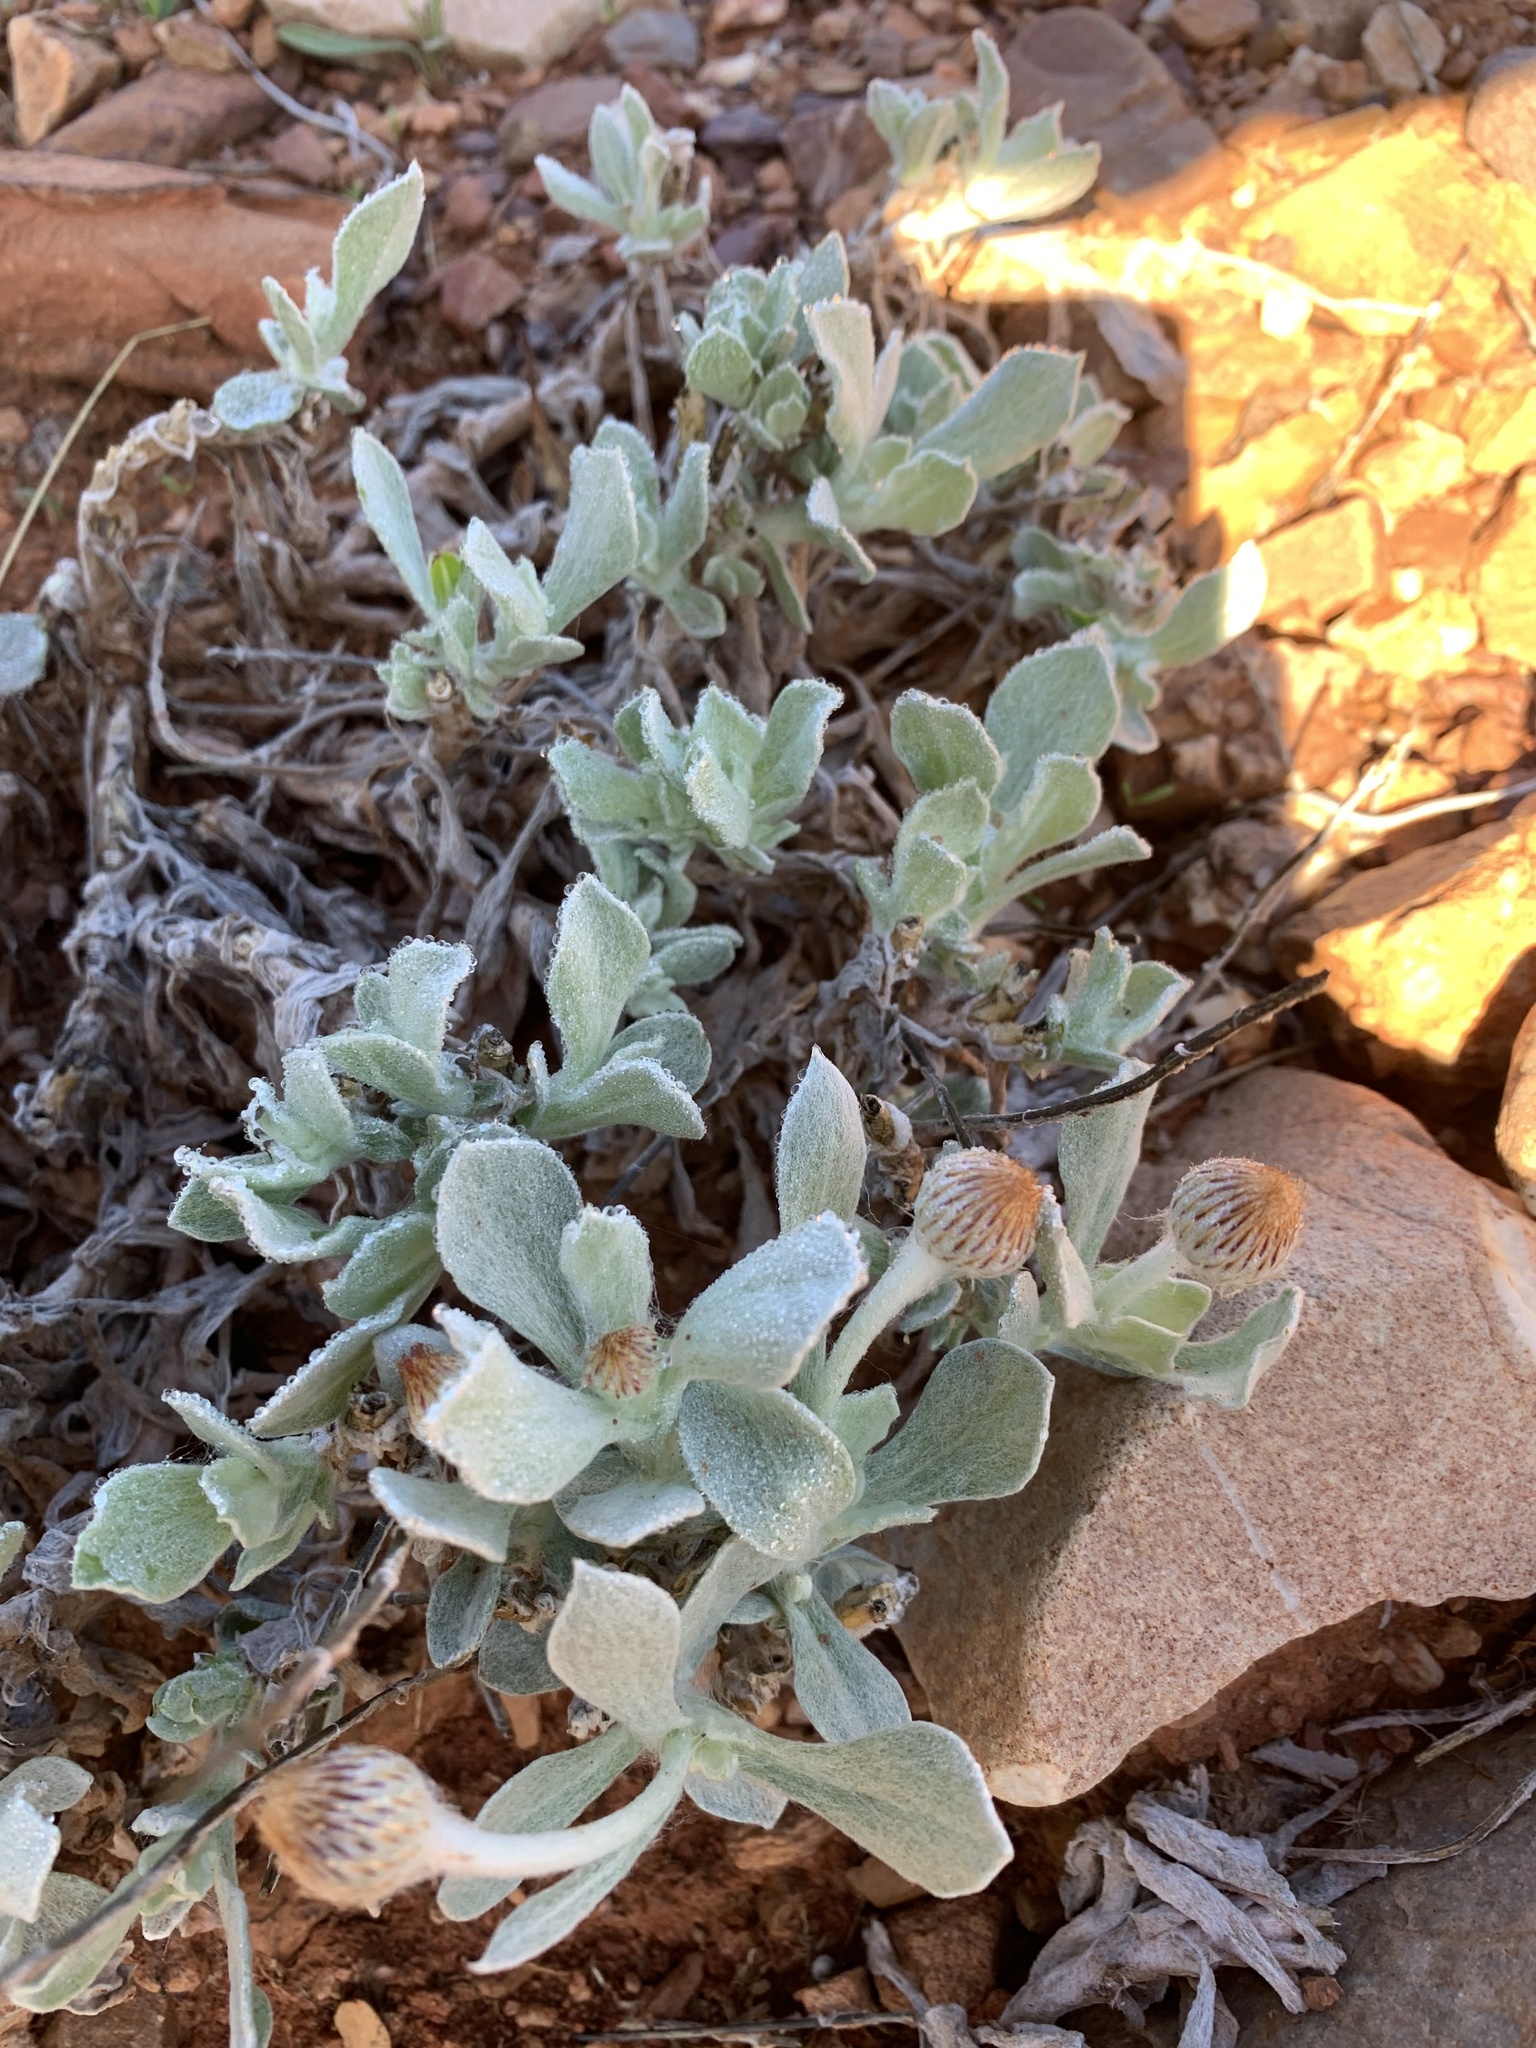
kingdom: Plantae
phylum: Tracheophyta
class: Magnoliopsida
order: Asterales
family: Asteraceae
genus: Anemocarpa
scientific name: Anemocarpa podolepidium
